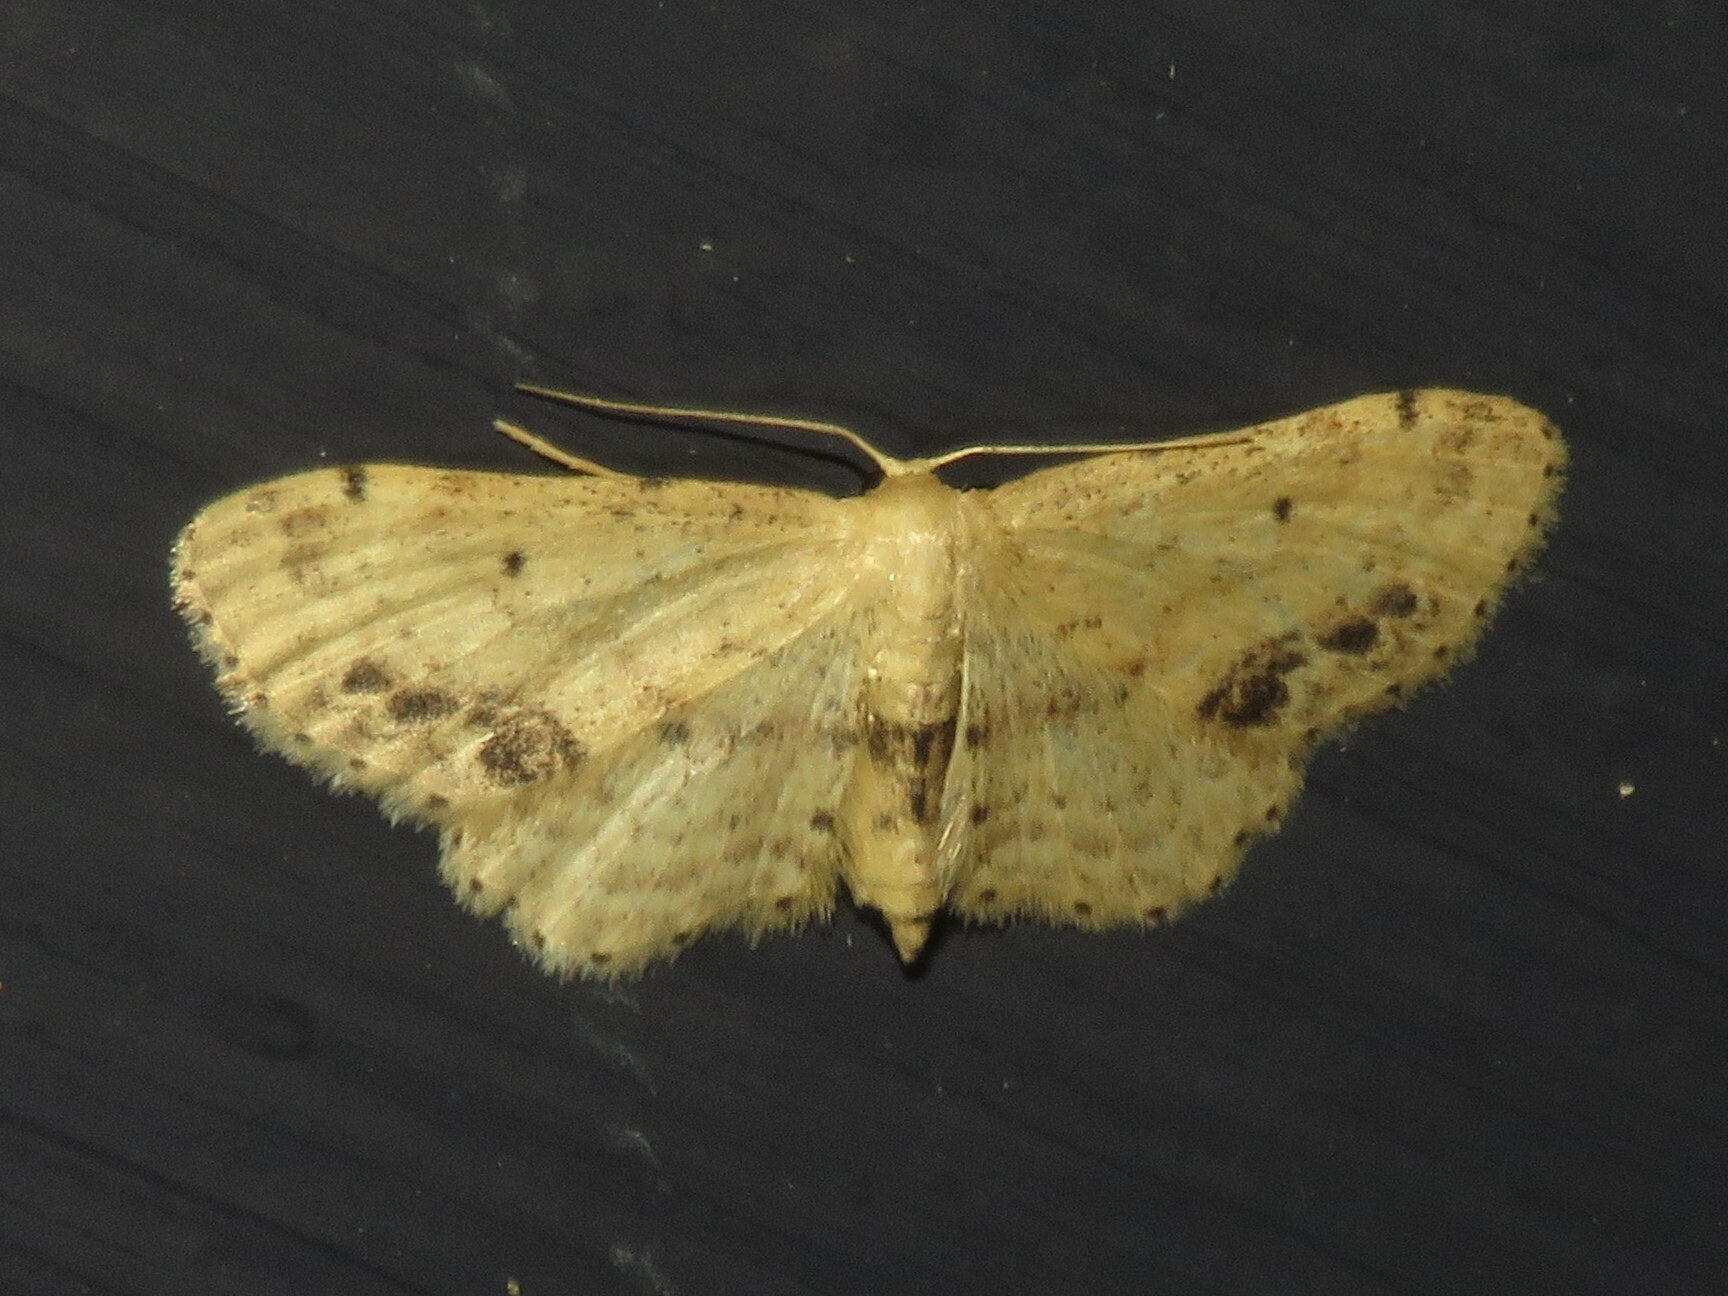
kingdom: Animalia
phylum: Arthropoda
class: Insecta
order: Lepidoptera
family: Geometridae
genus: Idaea
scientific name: Idaea dimidiata
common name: Single-dotted wave
